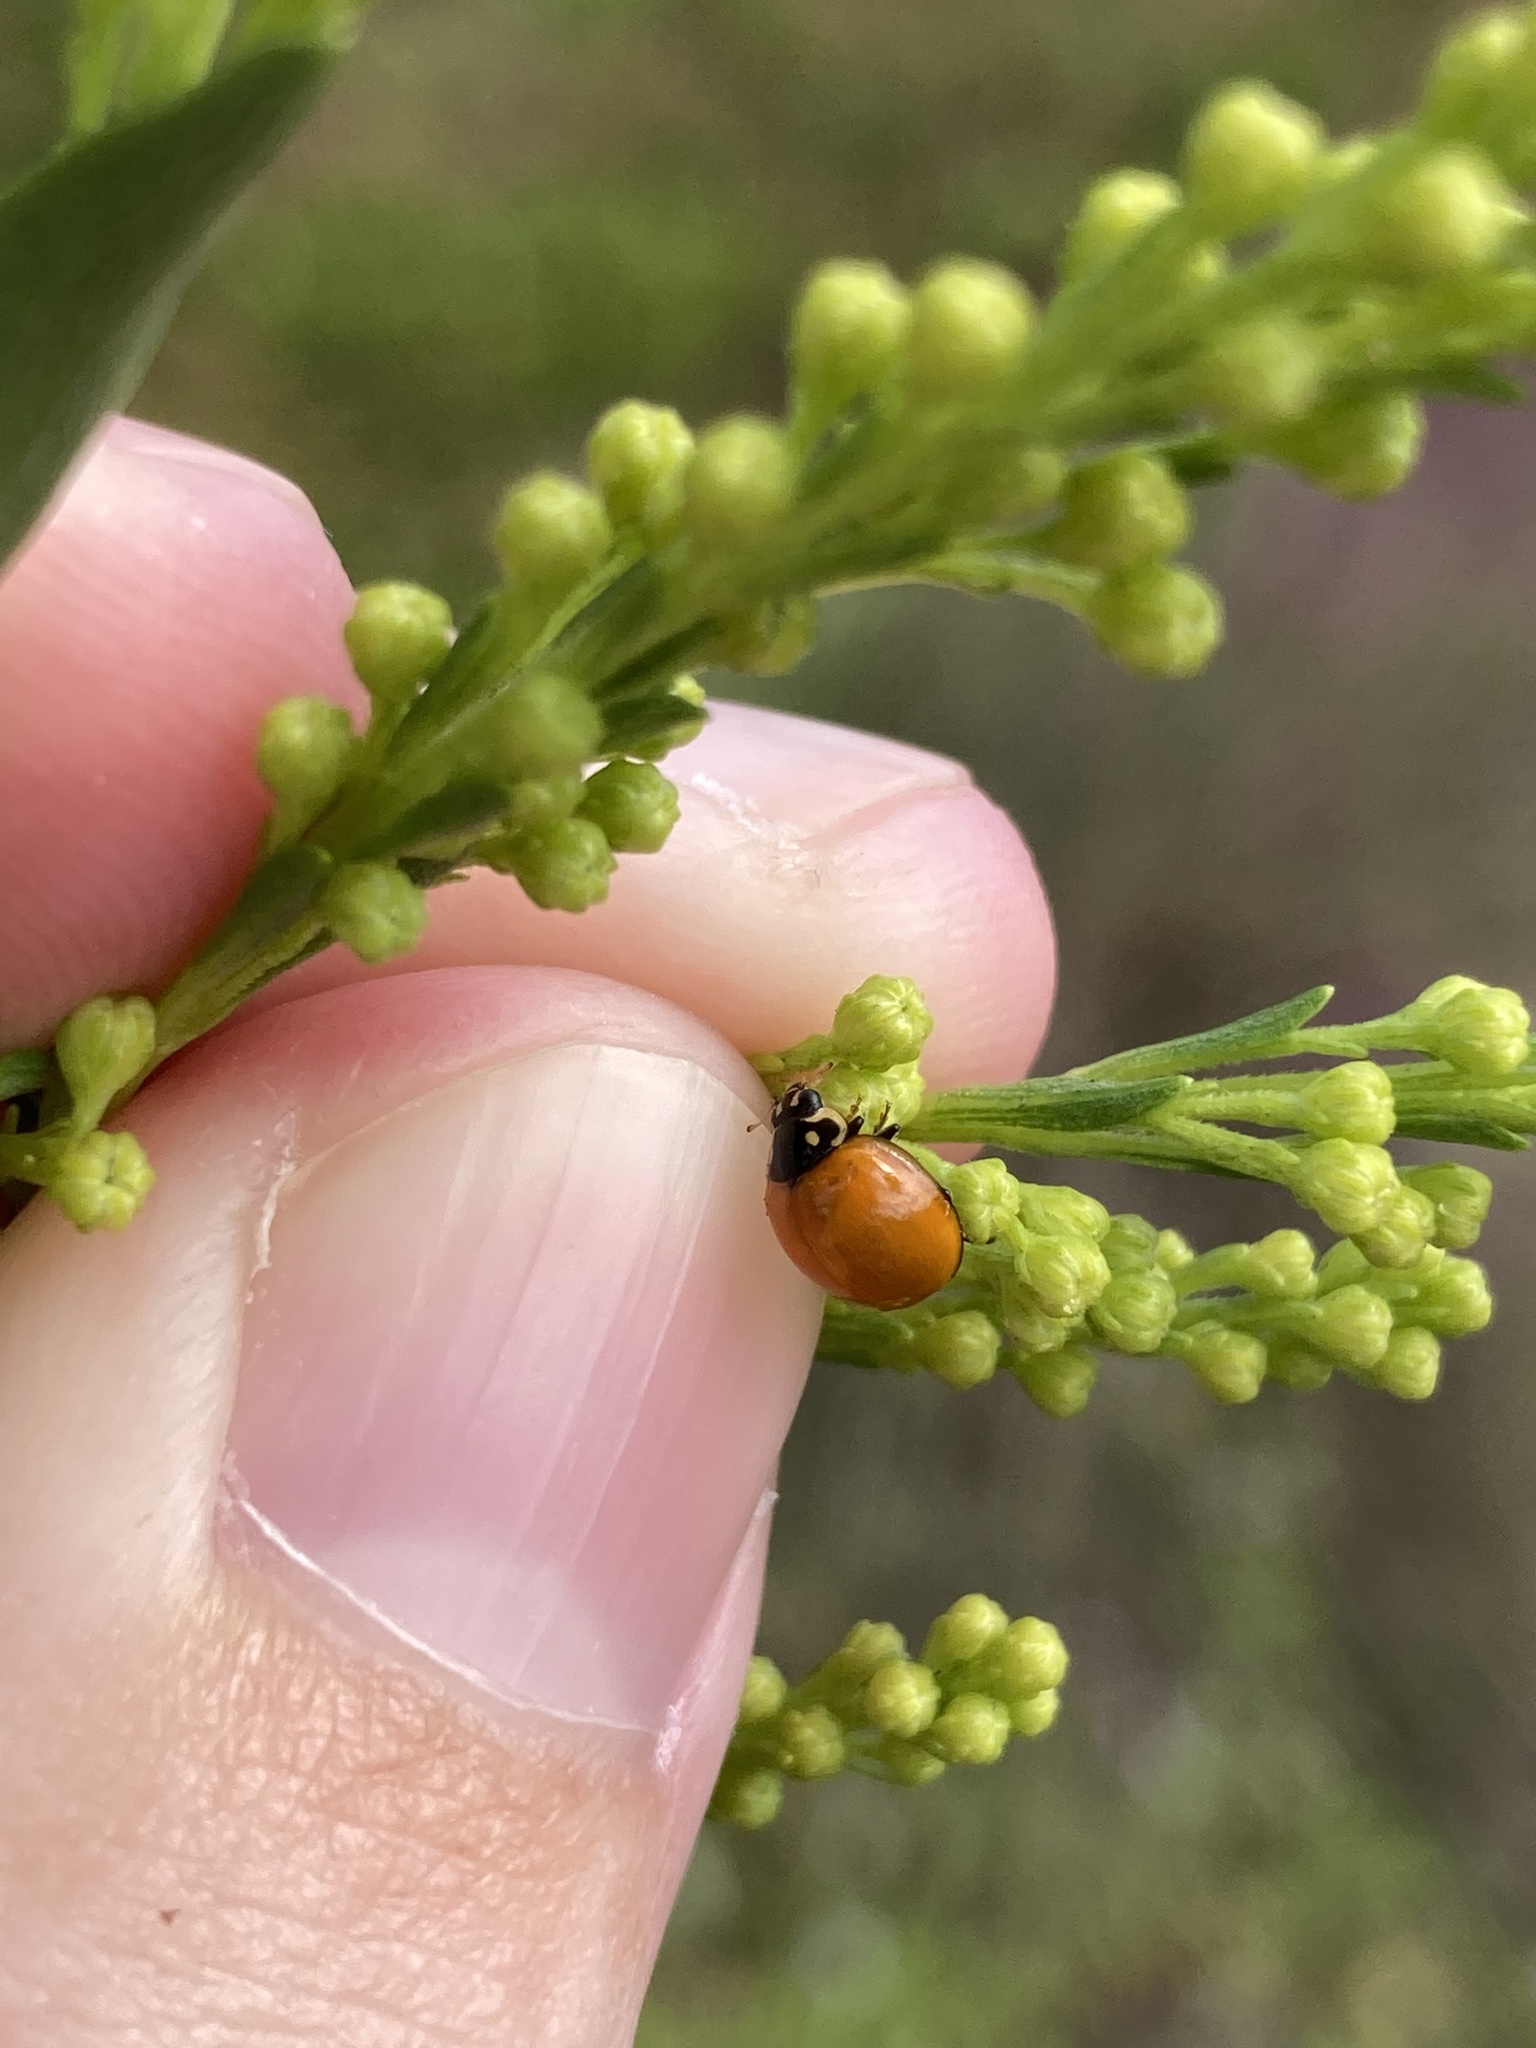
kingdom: Animalia
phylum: Arthropoda
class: Insecta
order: Coleoptera
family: Coccinellidae
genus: Cycloneda
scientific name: Cycloneda sanguinea
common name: Ladybird beetle
